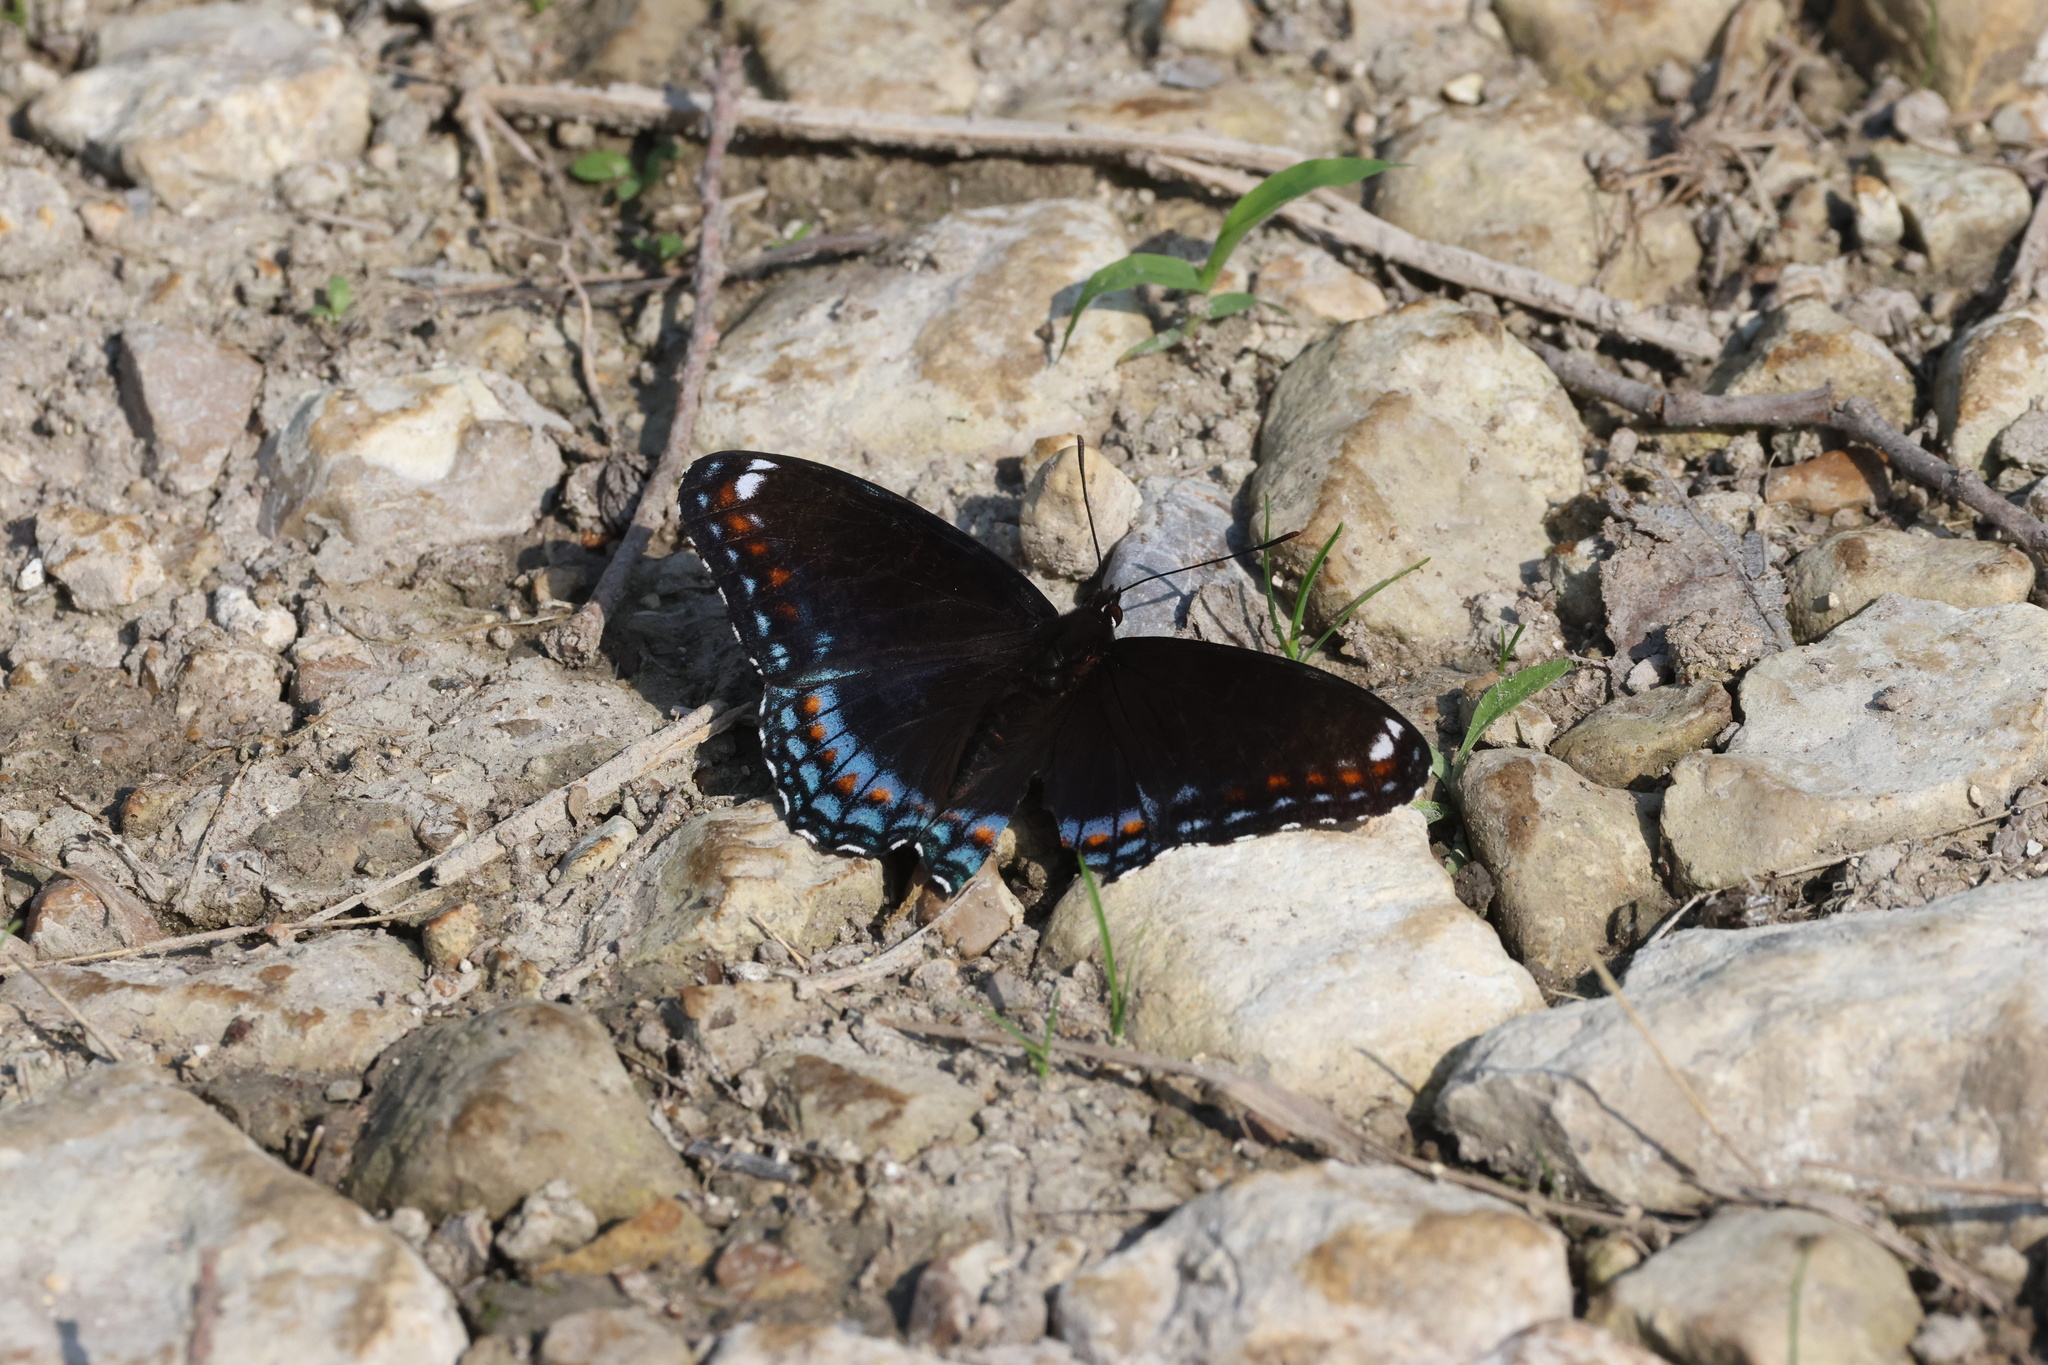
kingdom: Animalia
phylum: Arthropoda
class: Insecta
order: Lepidoptera
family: Nymphalidae
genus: Limenitis
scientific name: Limenitis arthemis
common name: Red-spotted admiral
